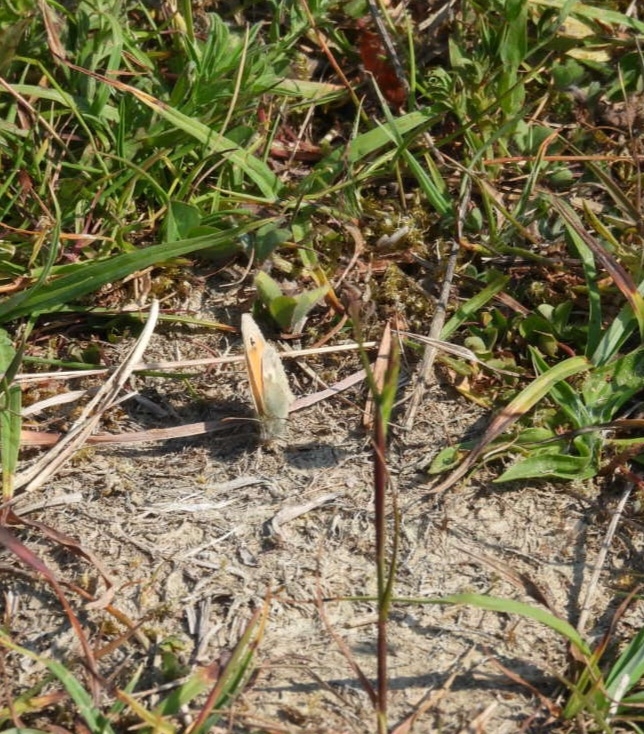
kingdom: Animalia
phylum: Arthropoda
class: Insecta
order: Lepidoptera
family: Nymphalidae
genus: Coenonympha
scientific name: Coenonympha pamphilus
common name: Small heath
